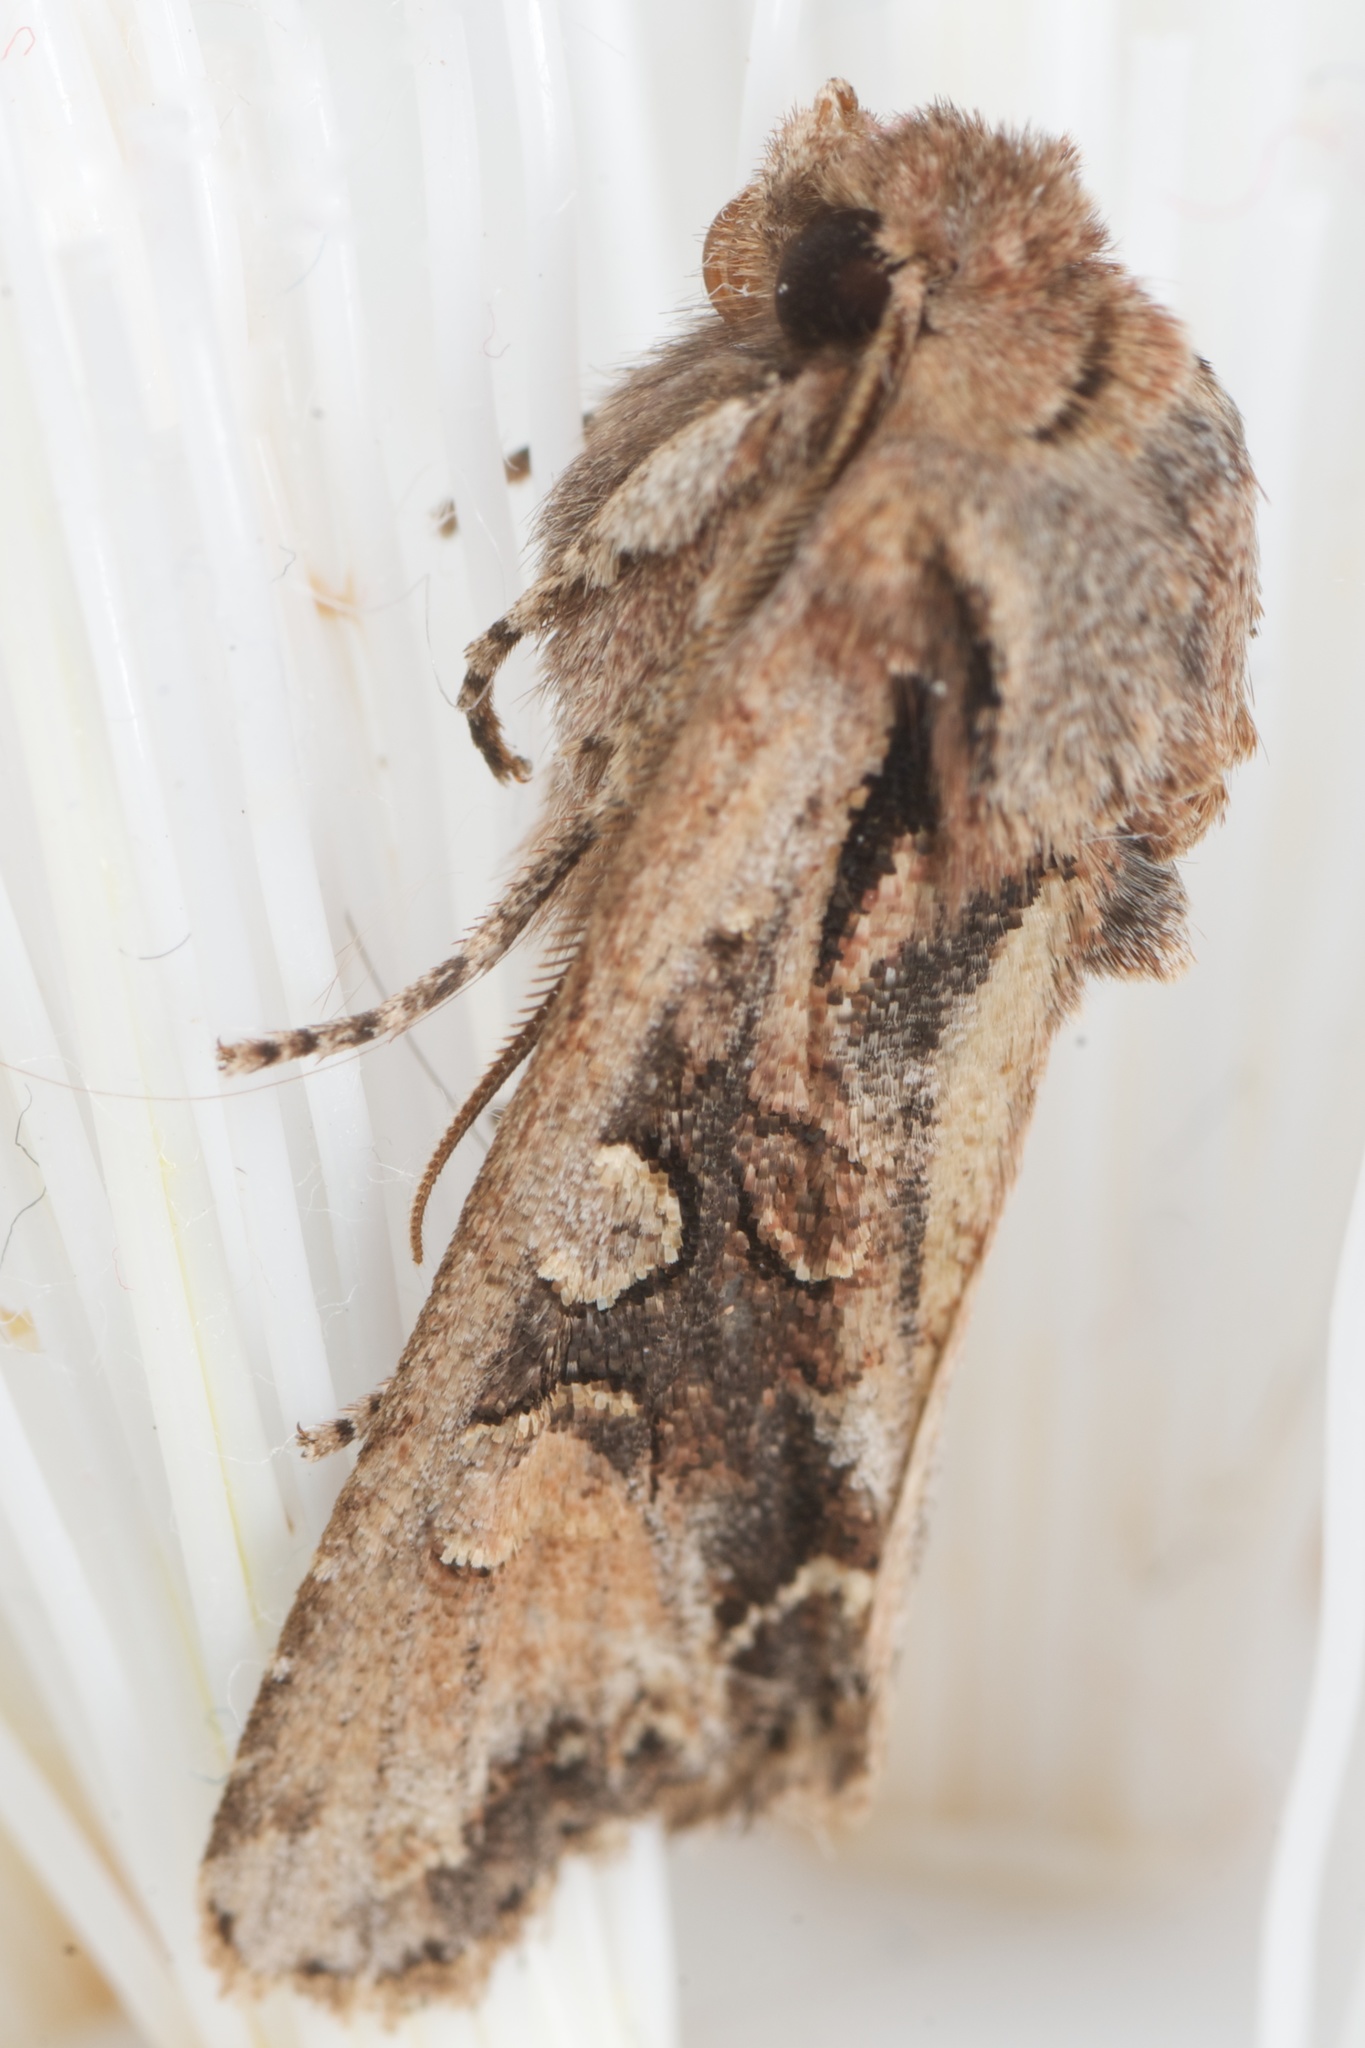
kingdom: Animalia
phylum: Arthropoda
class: Insecta
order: Lepidoptera
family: Noctuidae
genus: Ichneutica
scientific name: Ichneutica
